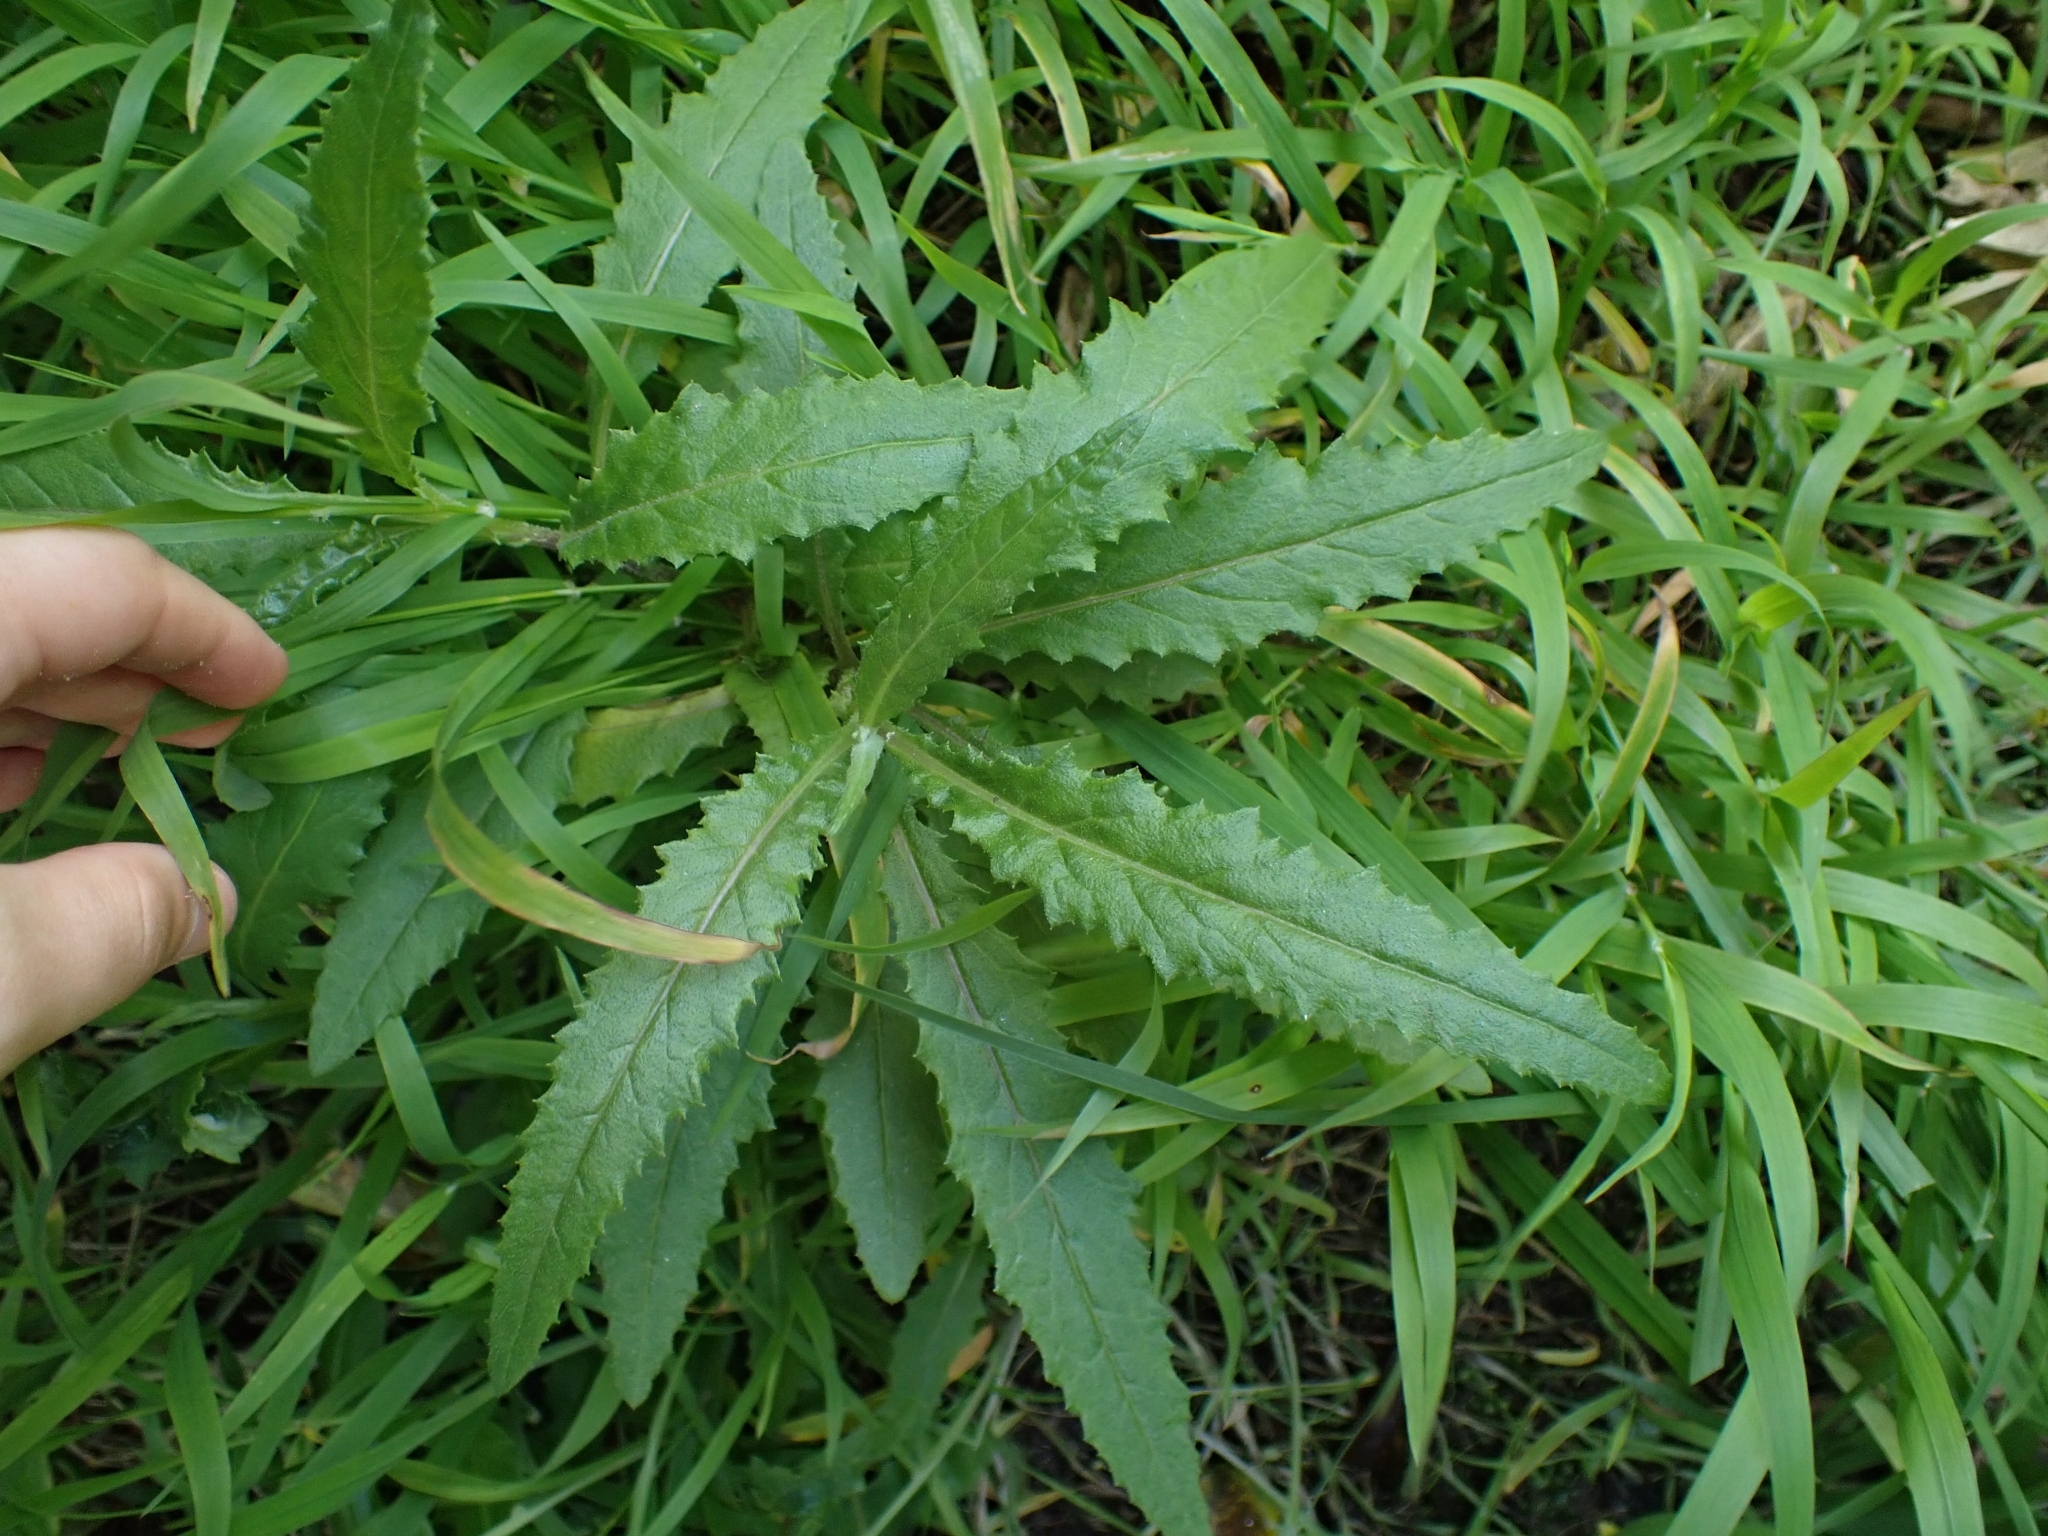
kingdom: Plantae
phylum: Tracheophyta
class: Magnoliopsida
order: Asterales
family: Asteraceae
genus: Senecio
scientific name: Senecio minimus
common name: Toothed fireweed
